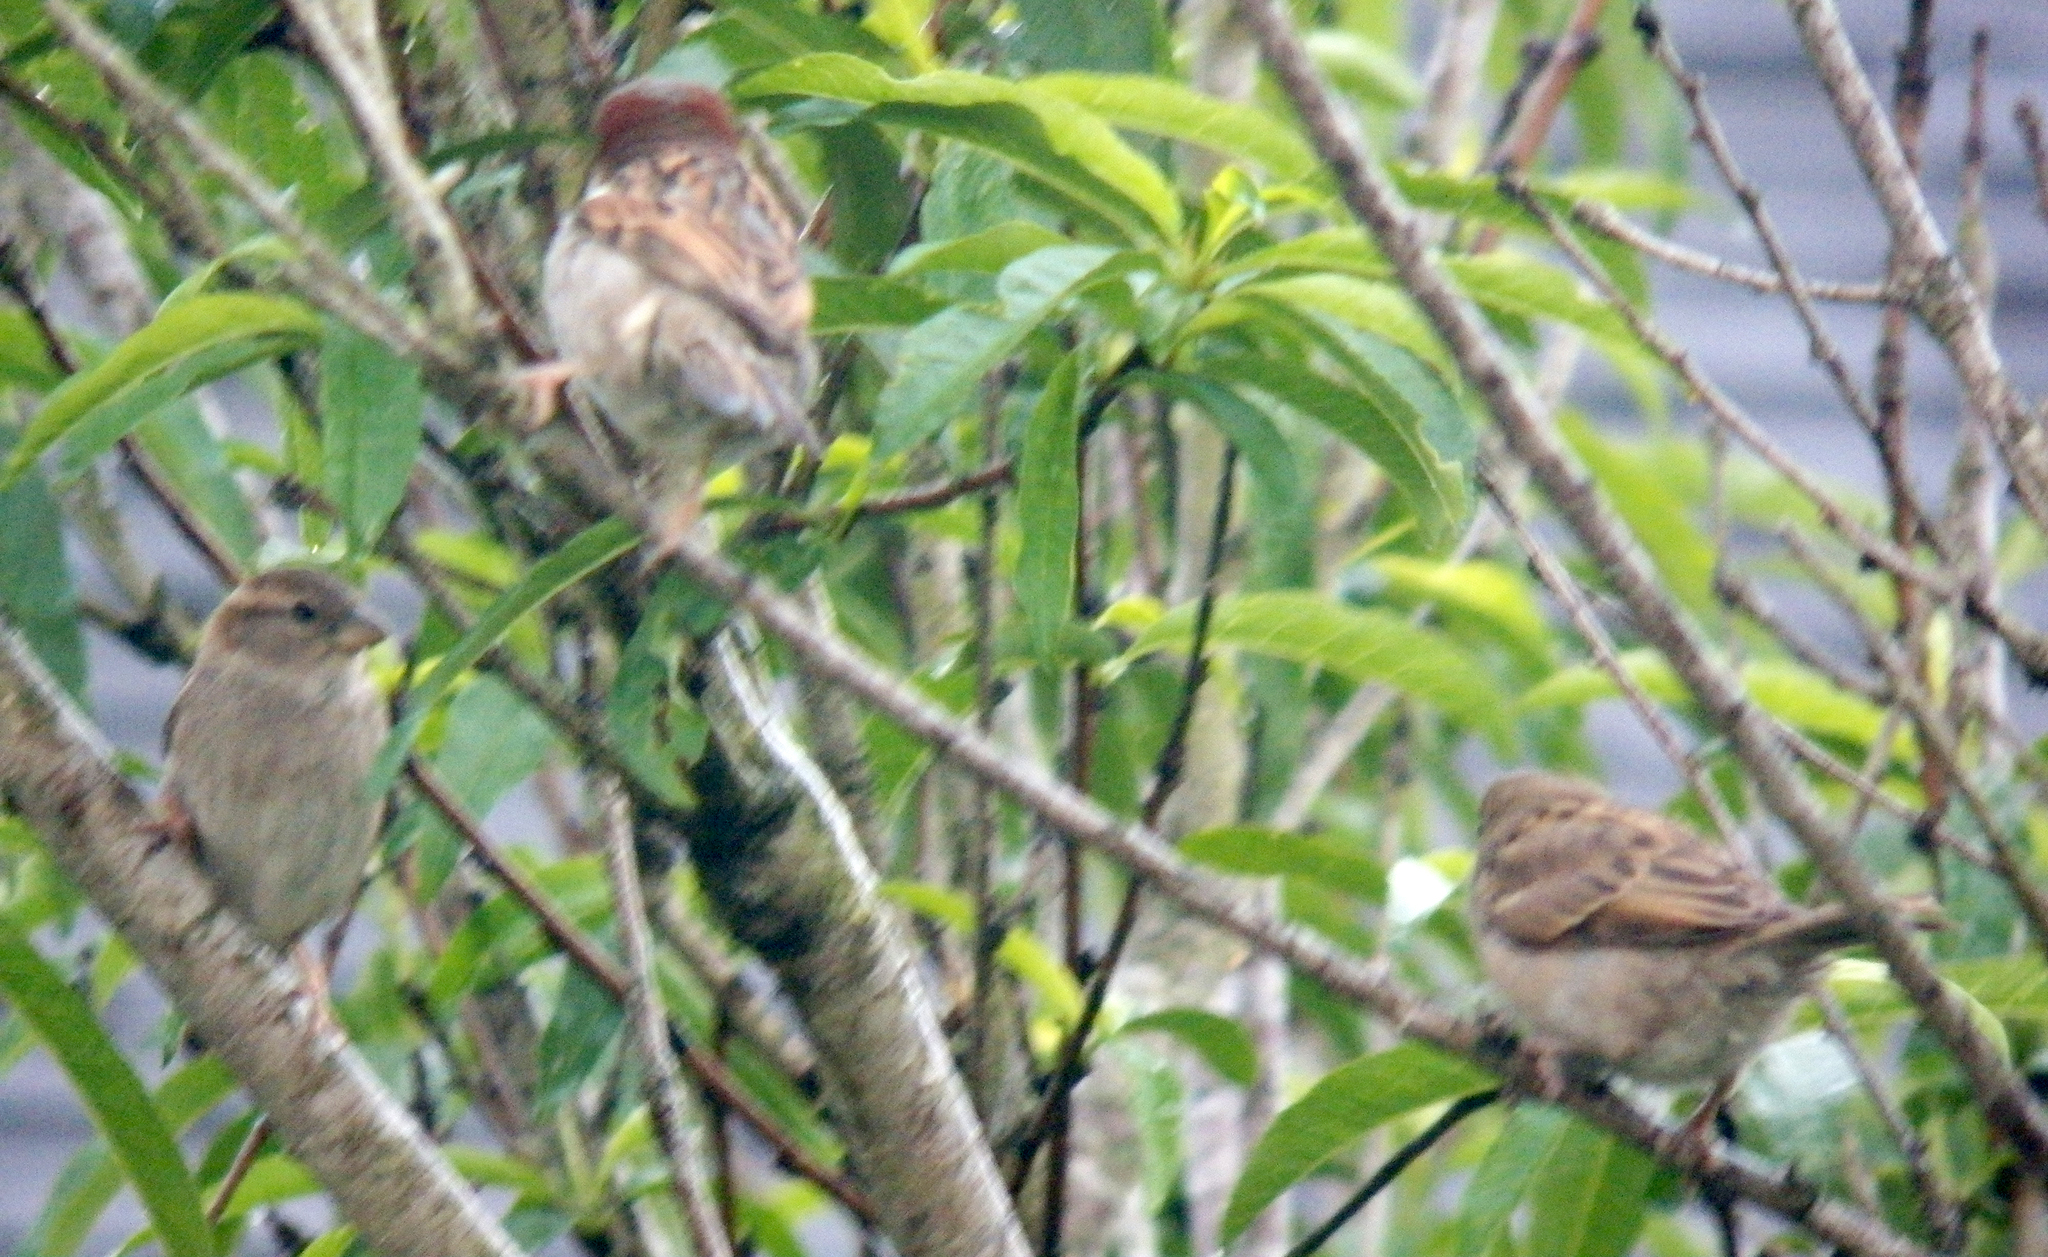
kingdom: Animalia
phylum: Chordata
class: Aves
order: Passeriformes
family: Passeridae
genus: Passer
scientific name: Passer domesticus
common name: House sparrow
